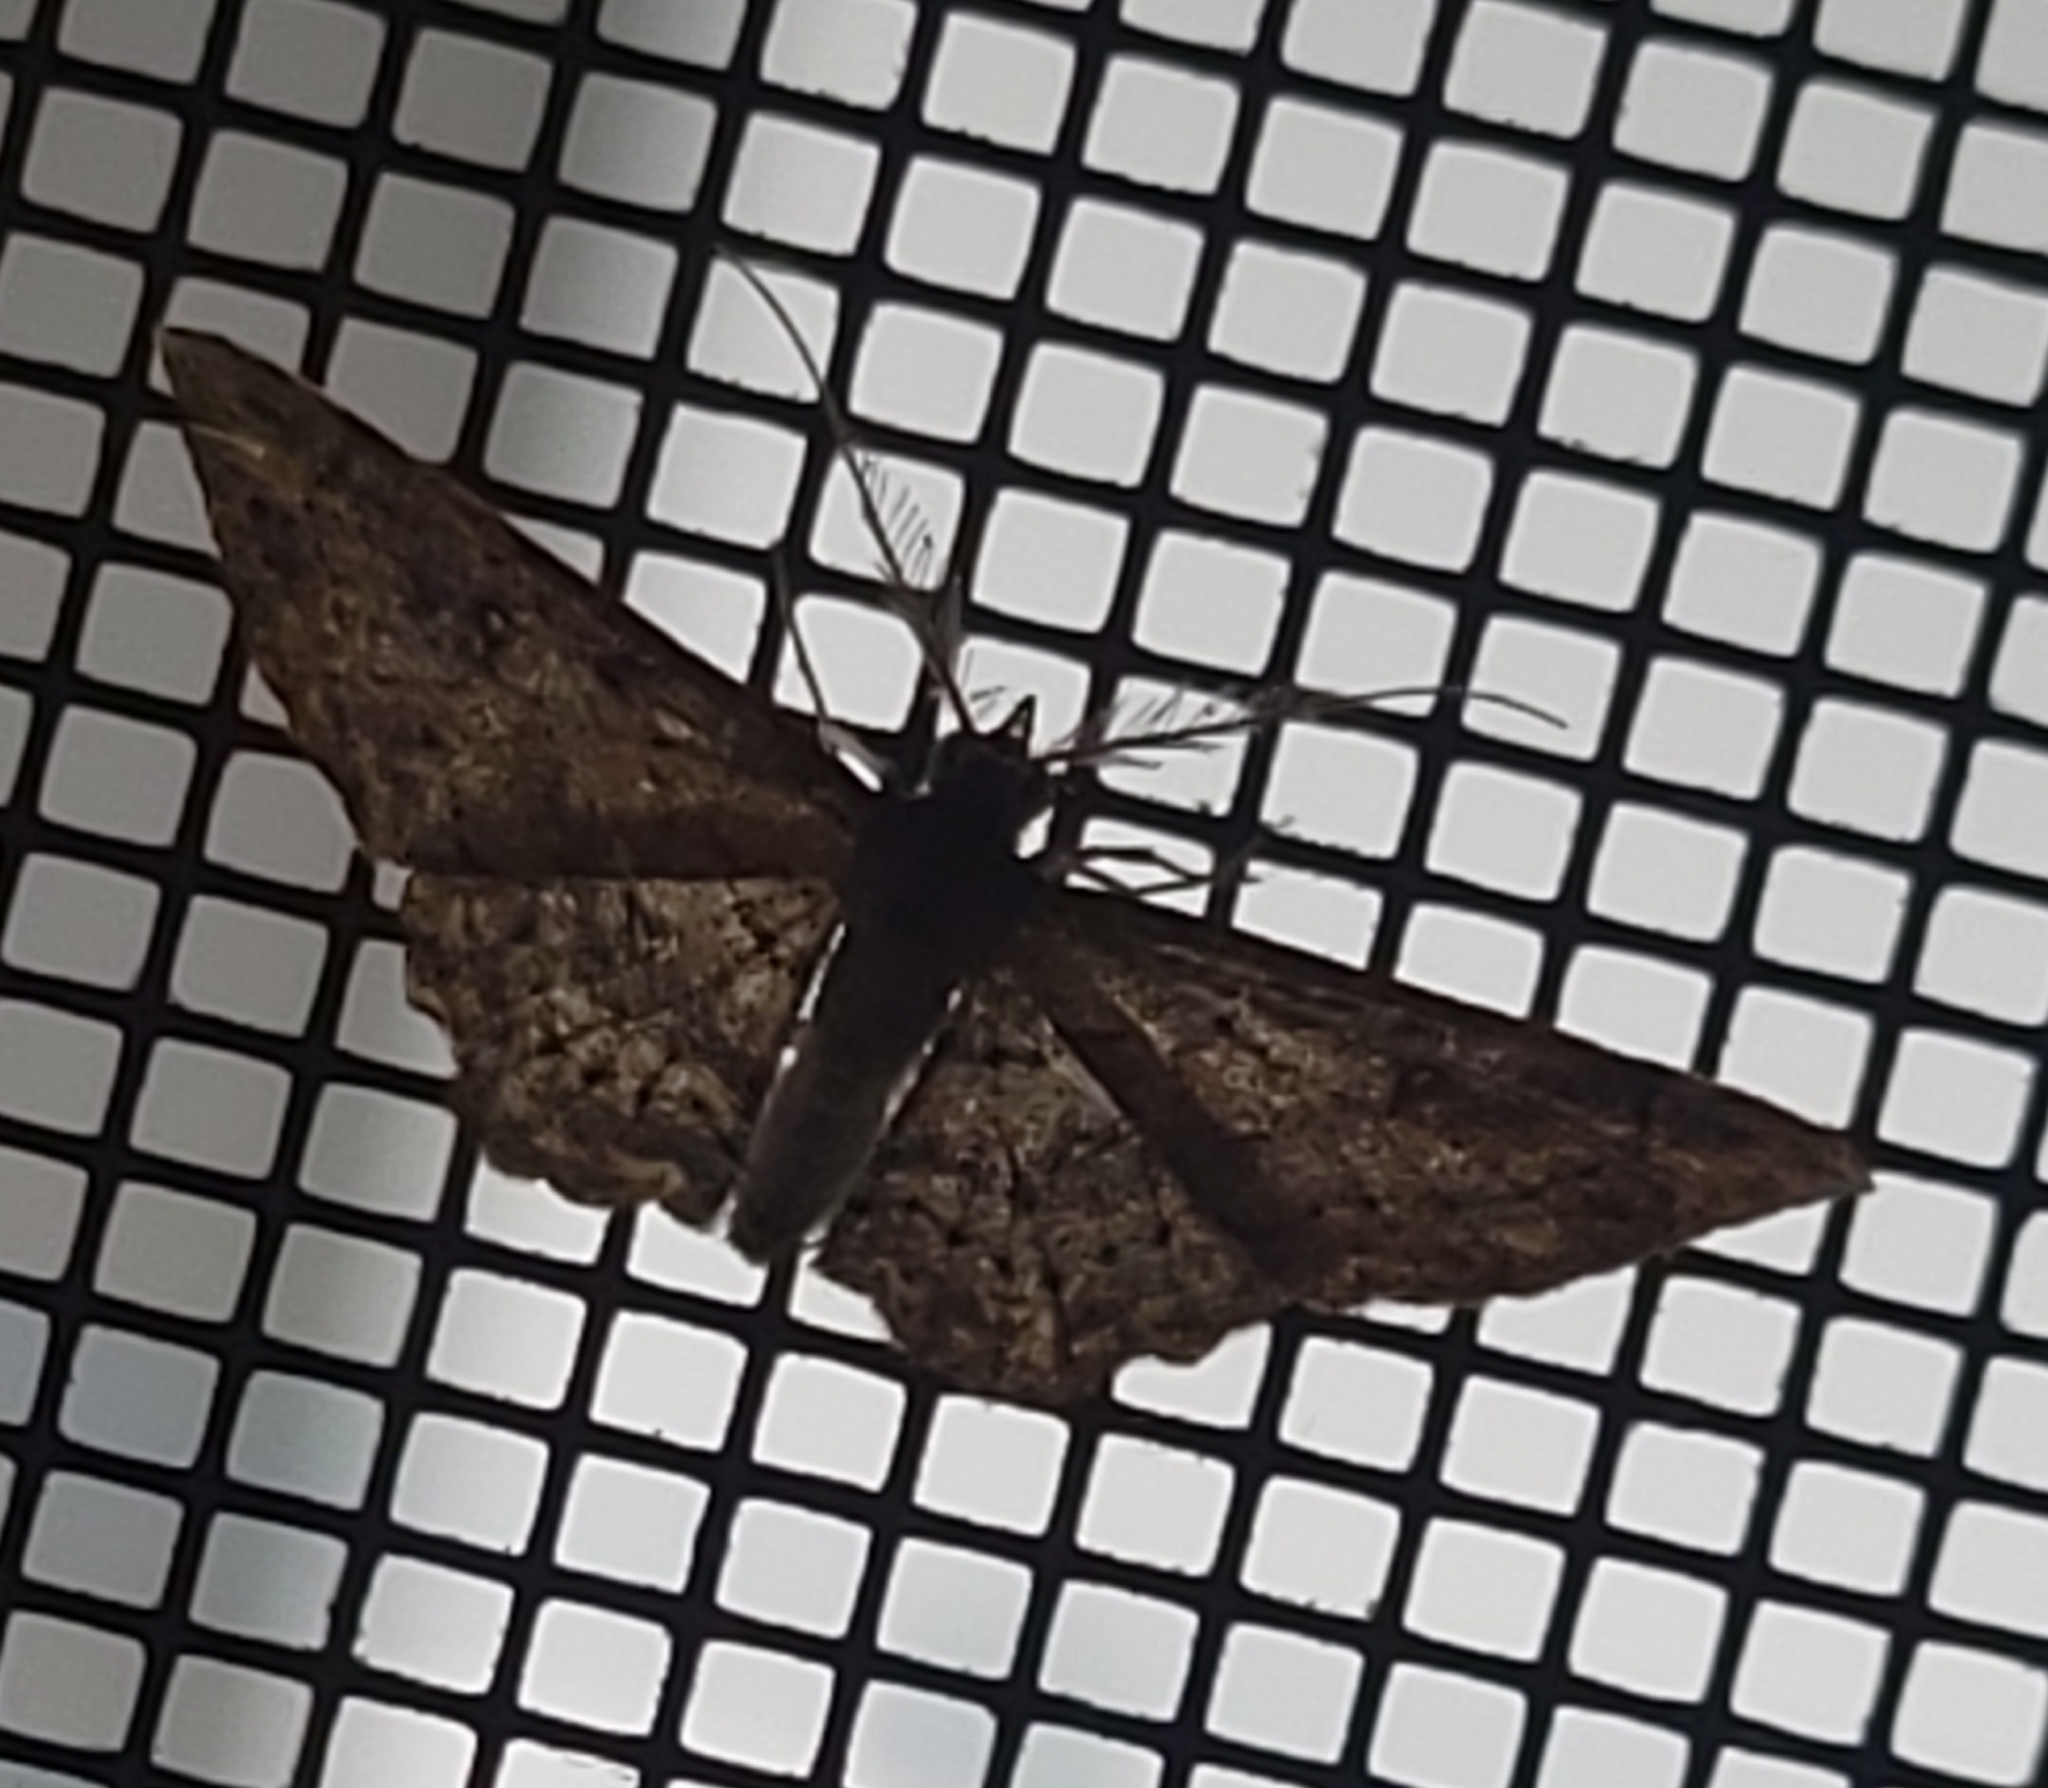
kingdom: Animalia
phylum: Arthropoda
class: Insecta
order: Lepidoptera
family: Geometridae
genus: Cyclophora
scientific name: Cyclophora nanaria
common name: Cankerworm
